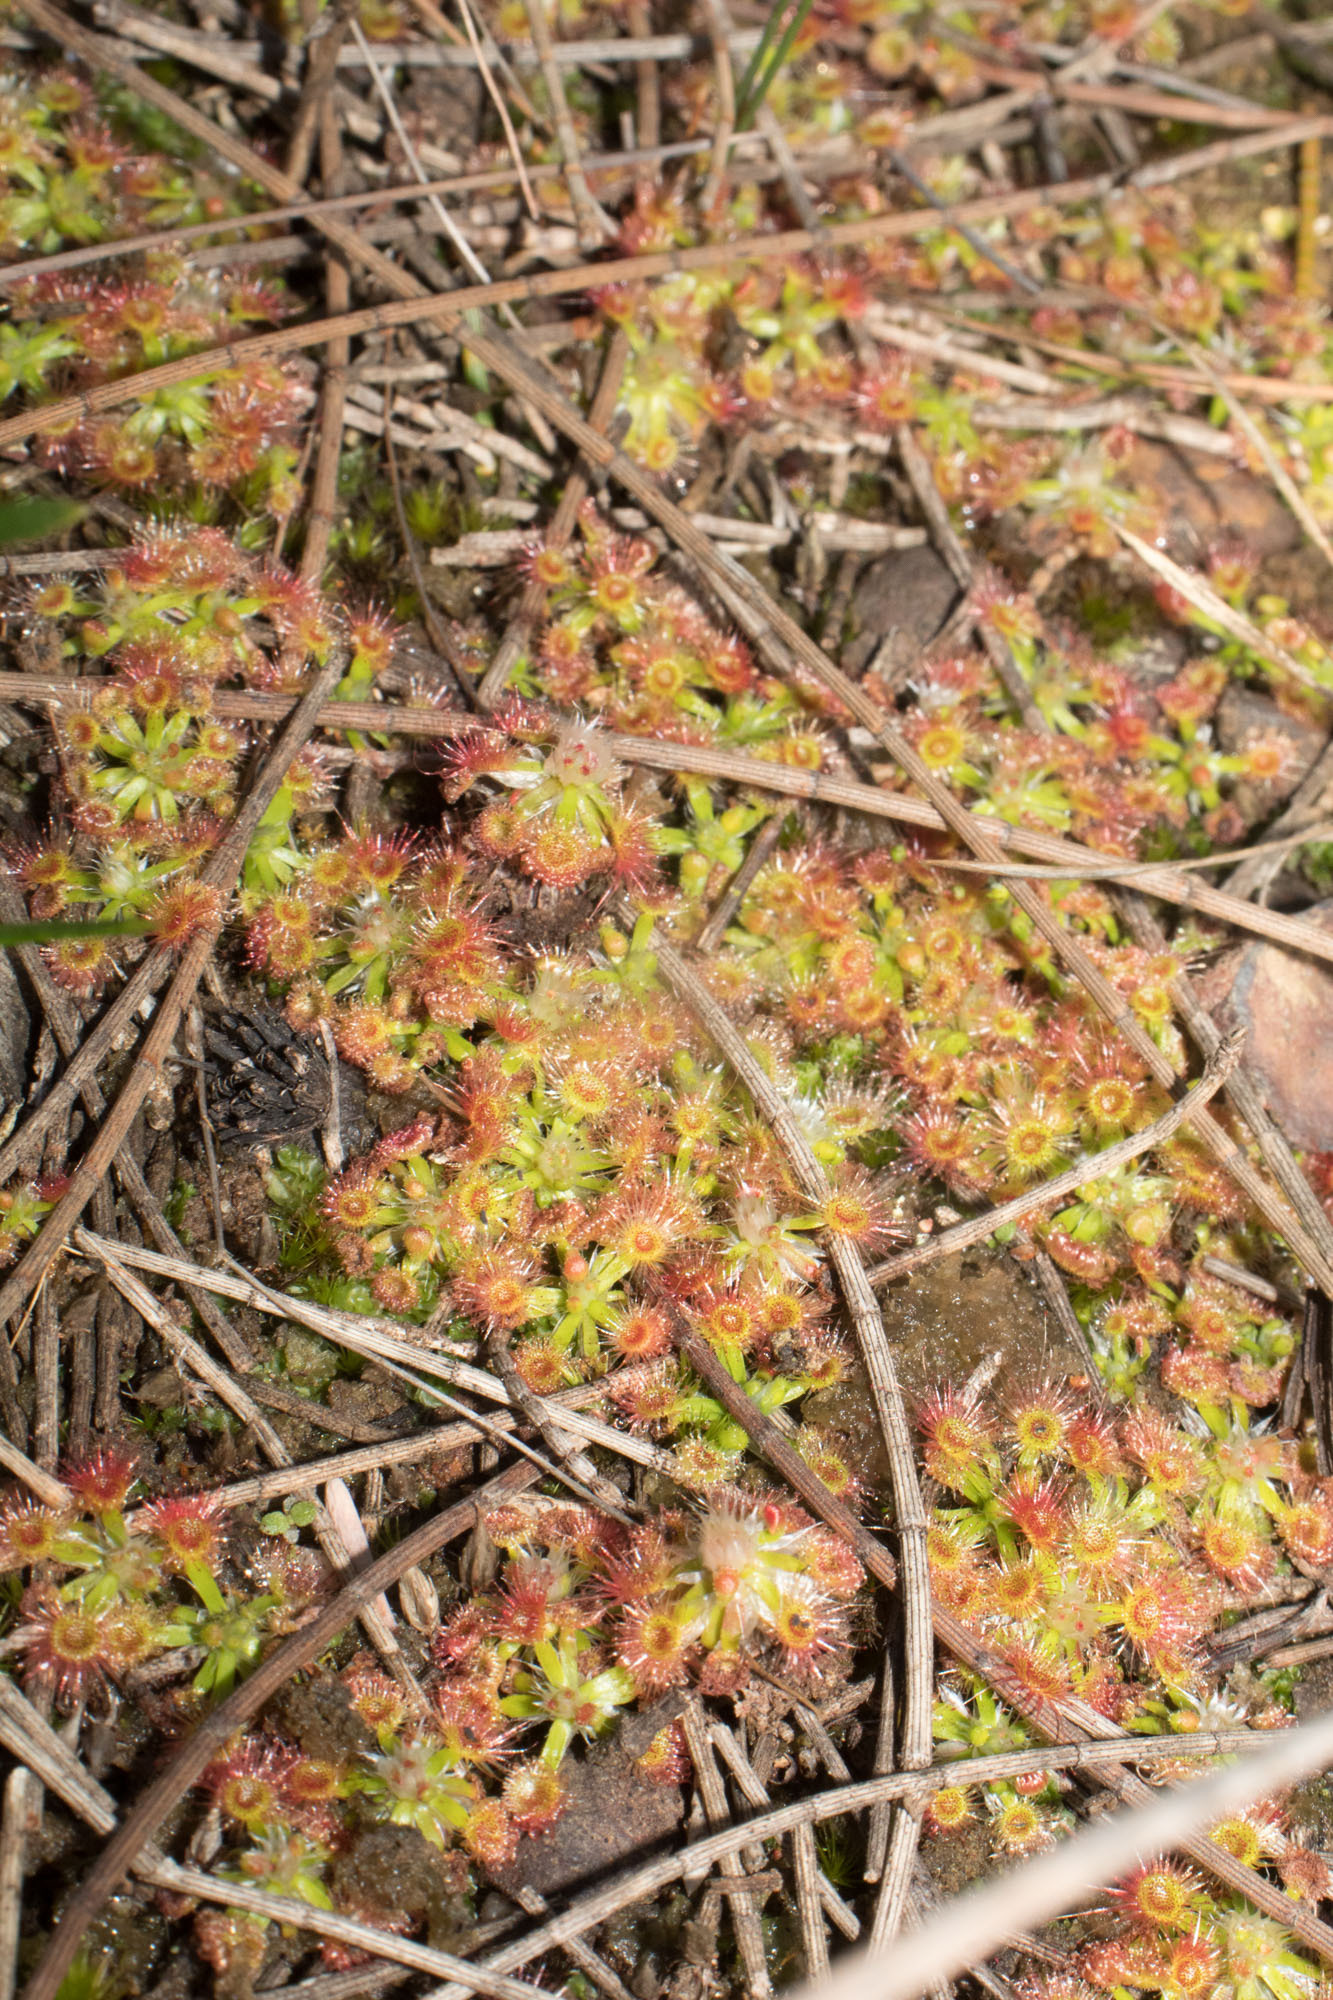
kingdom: Plantae
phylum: Tracheophyta
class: Magnoliopsida
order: Caryophyllales
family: Droseraceae
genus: Drosera
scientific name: Drosera androsacea
